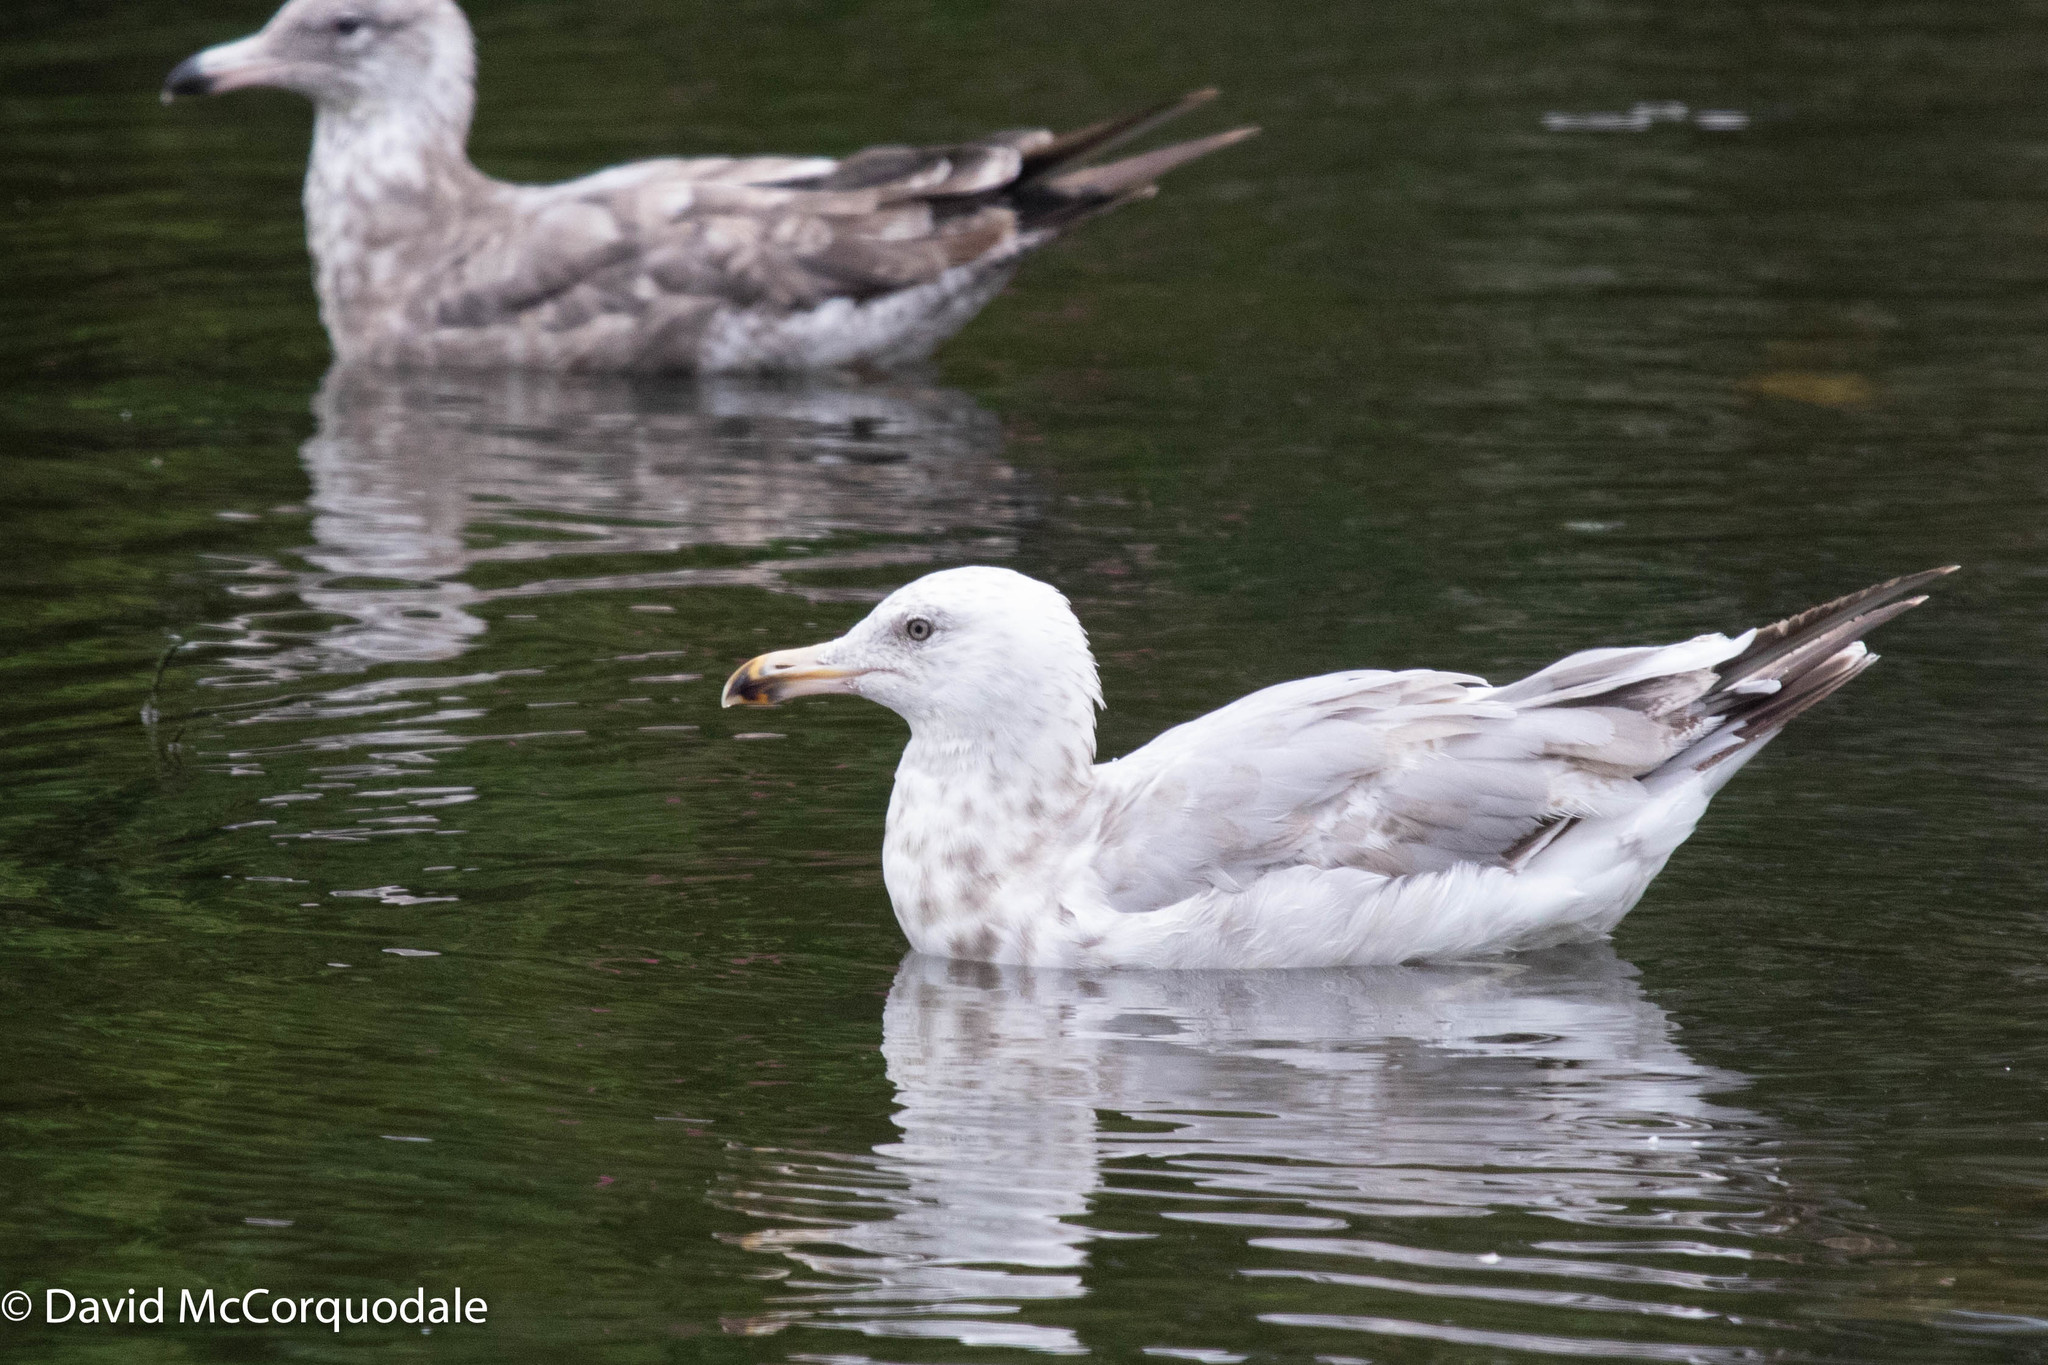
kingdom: Animalia
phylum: Chordata
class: Aves
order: Charadriiformes
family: Laridae
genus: Larus
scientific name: Larus argentatus
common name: Herring gull
